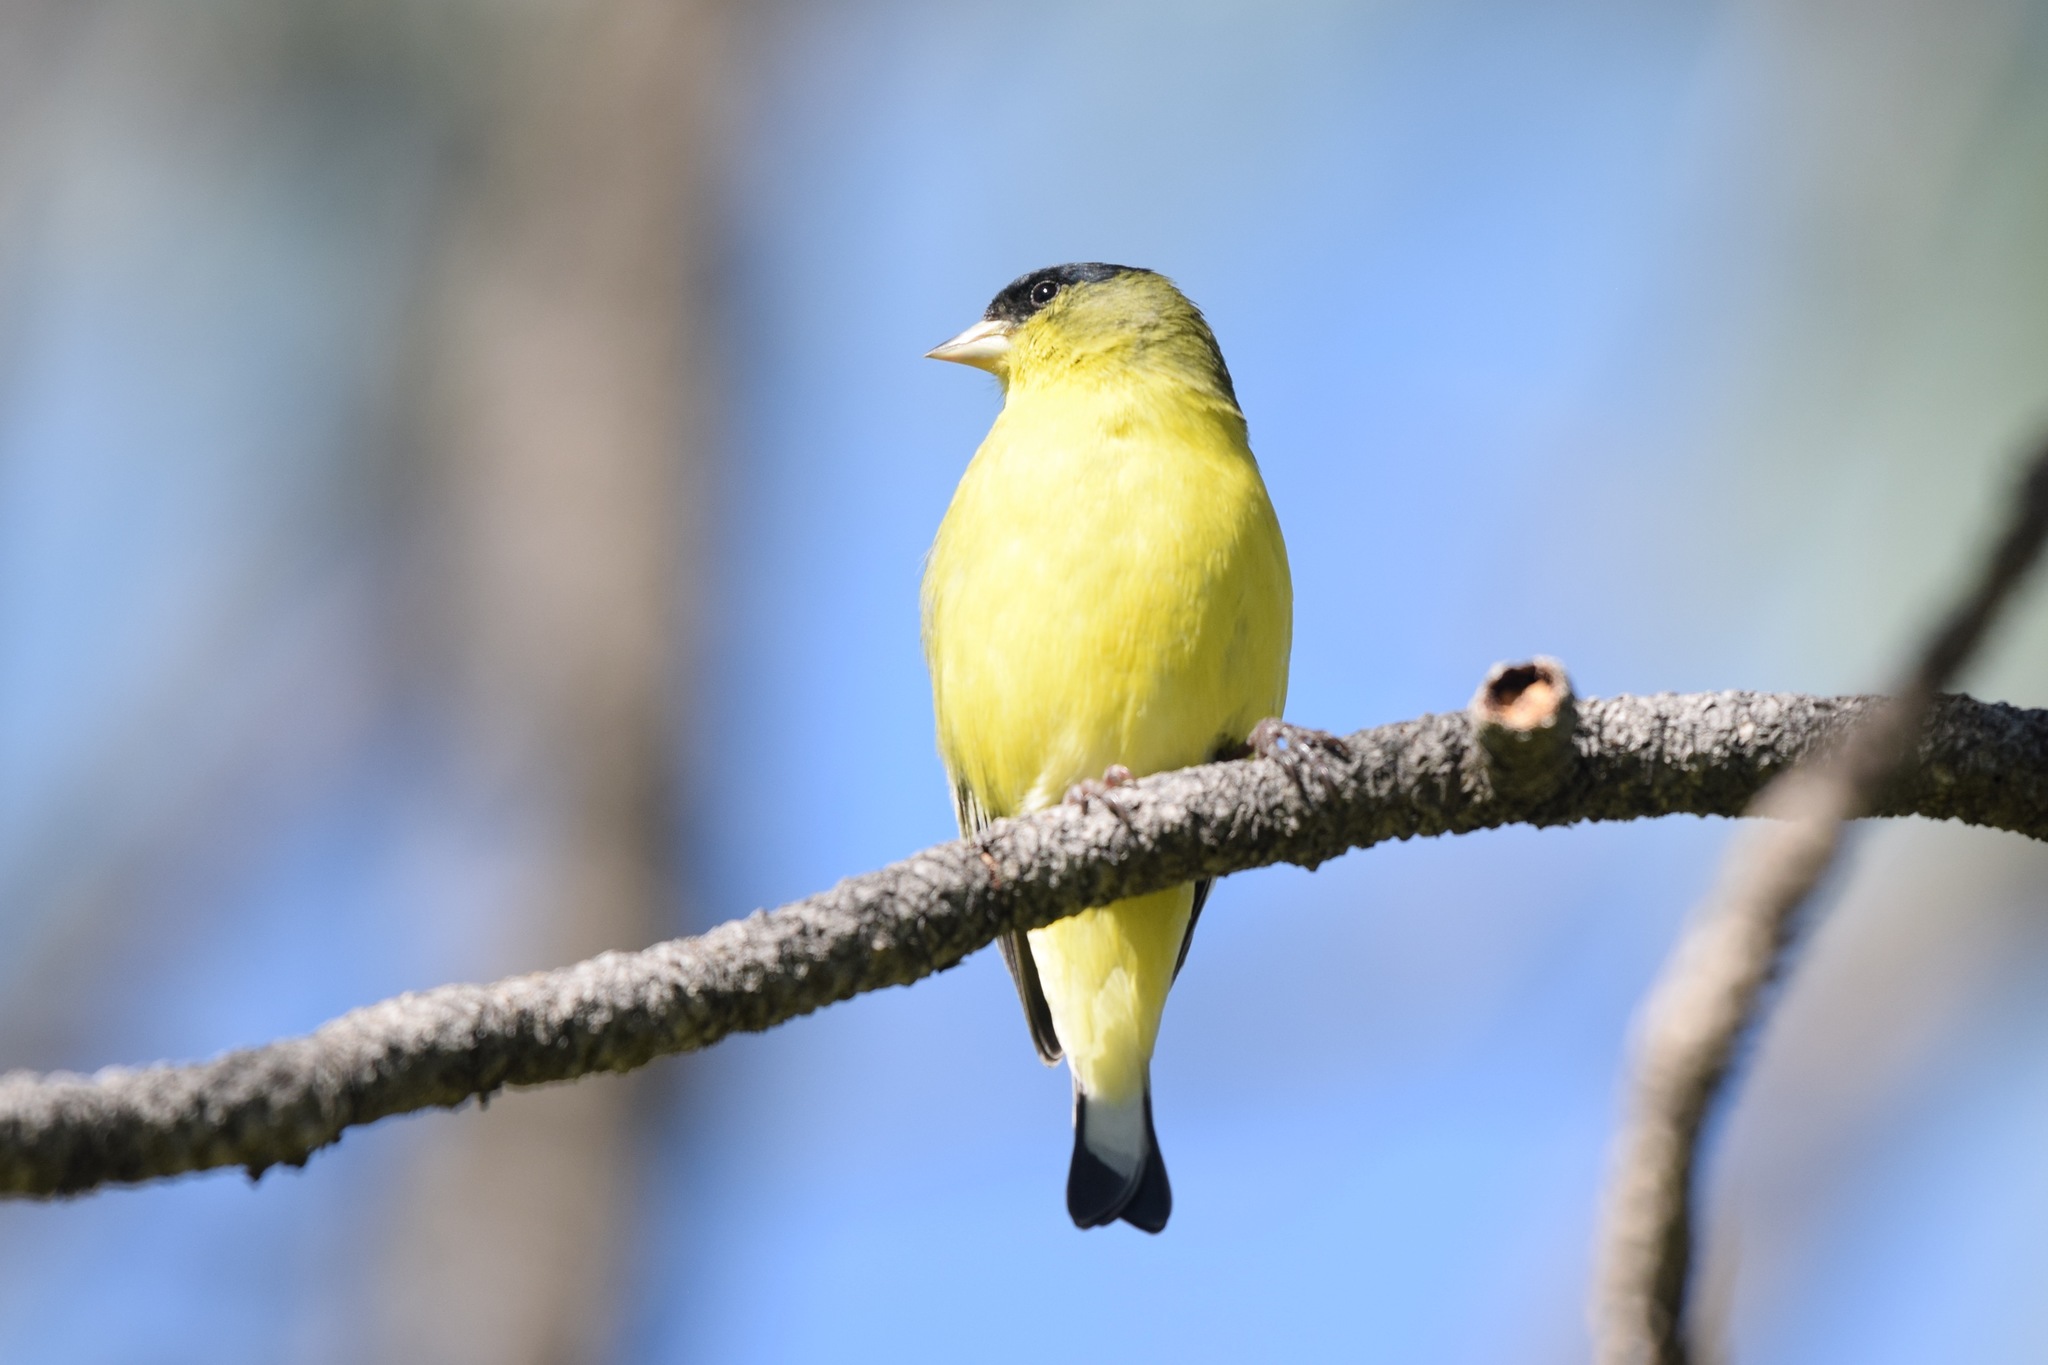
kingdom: Animalia
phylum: Chordata
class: Aves
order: Passeriformes
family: Fringillidae
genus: Spinus
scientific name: Spinus psaltria
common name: Lesser goldfinch
